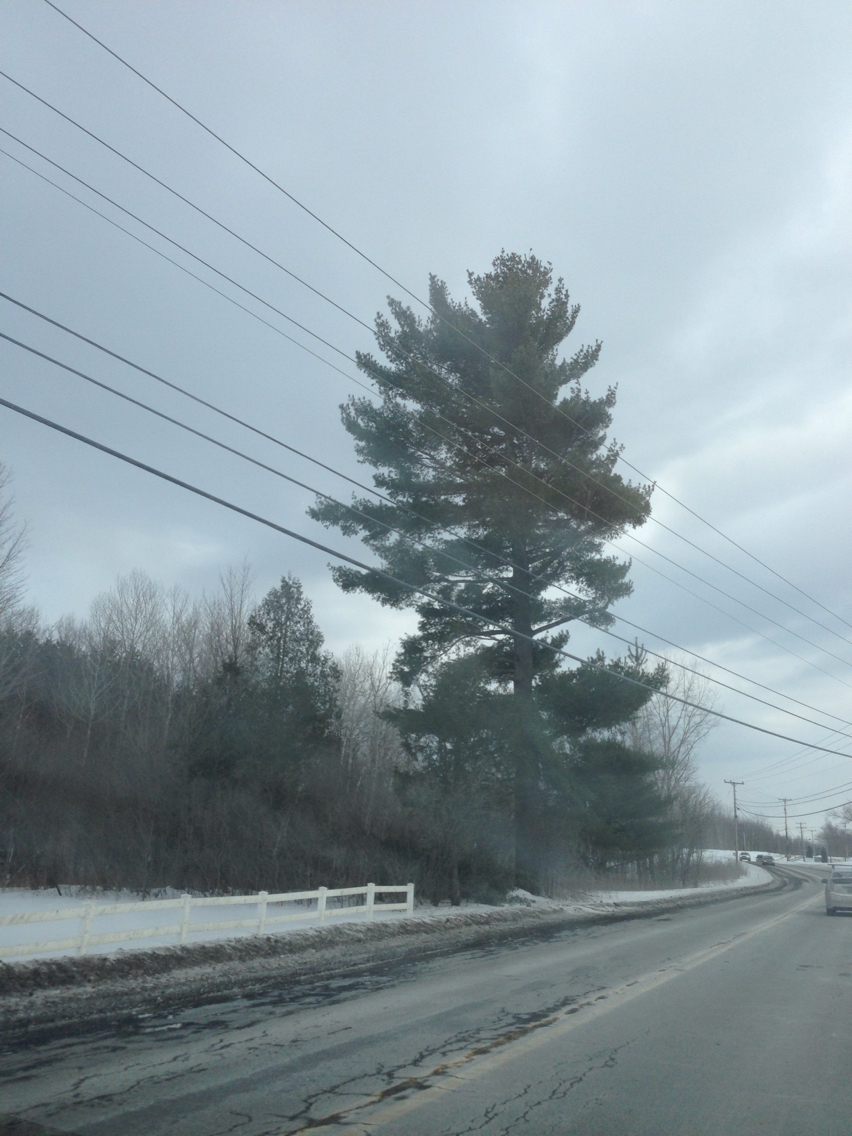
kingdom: Plantae
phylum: Tracheophyta
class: Pinopsida
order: Pinales
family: Pinaceae
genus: Pinus
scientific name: Pinus strobus
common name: Weymouth pine
